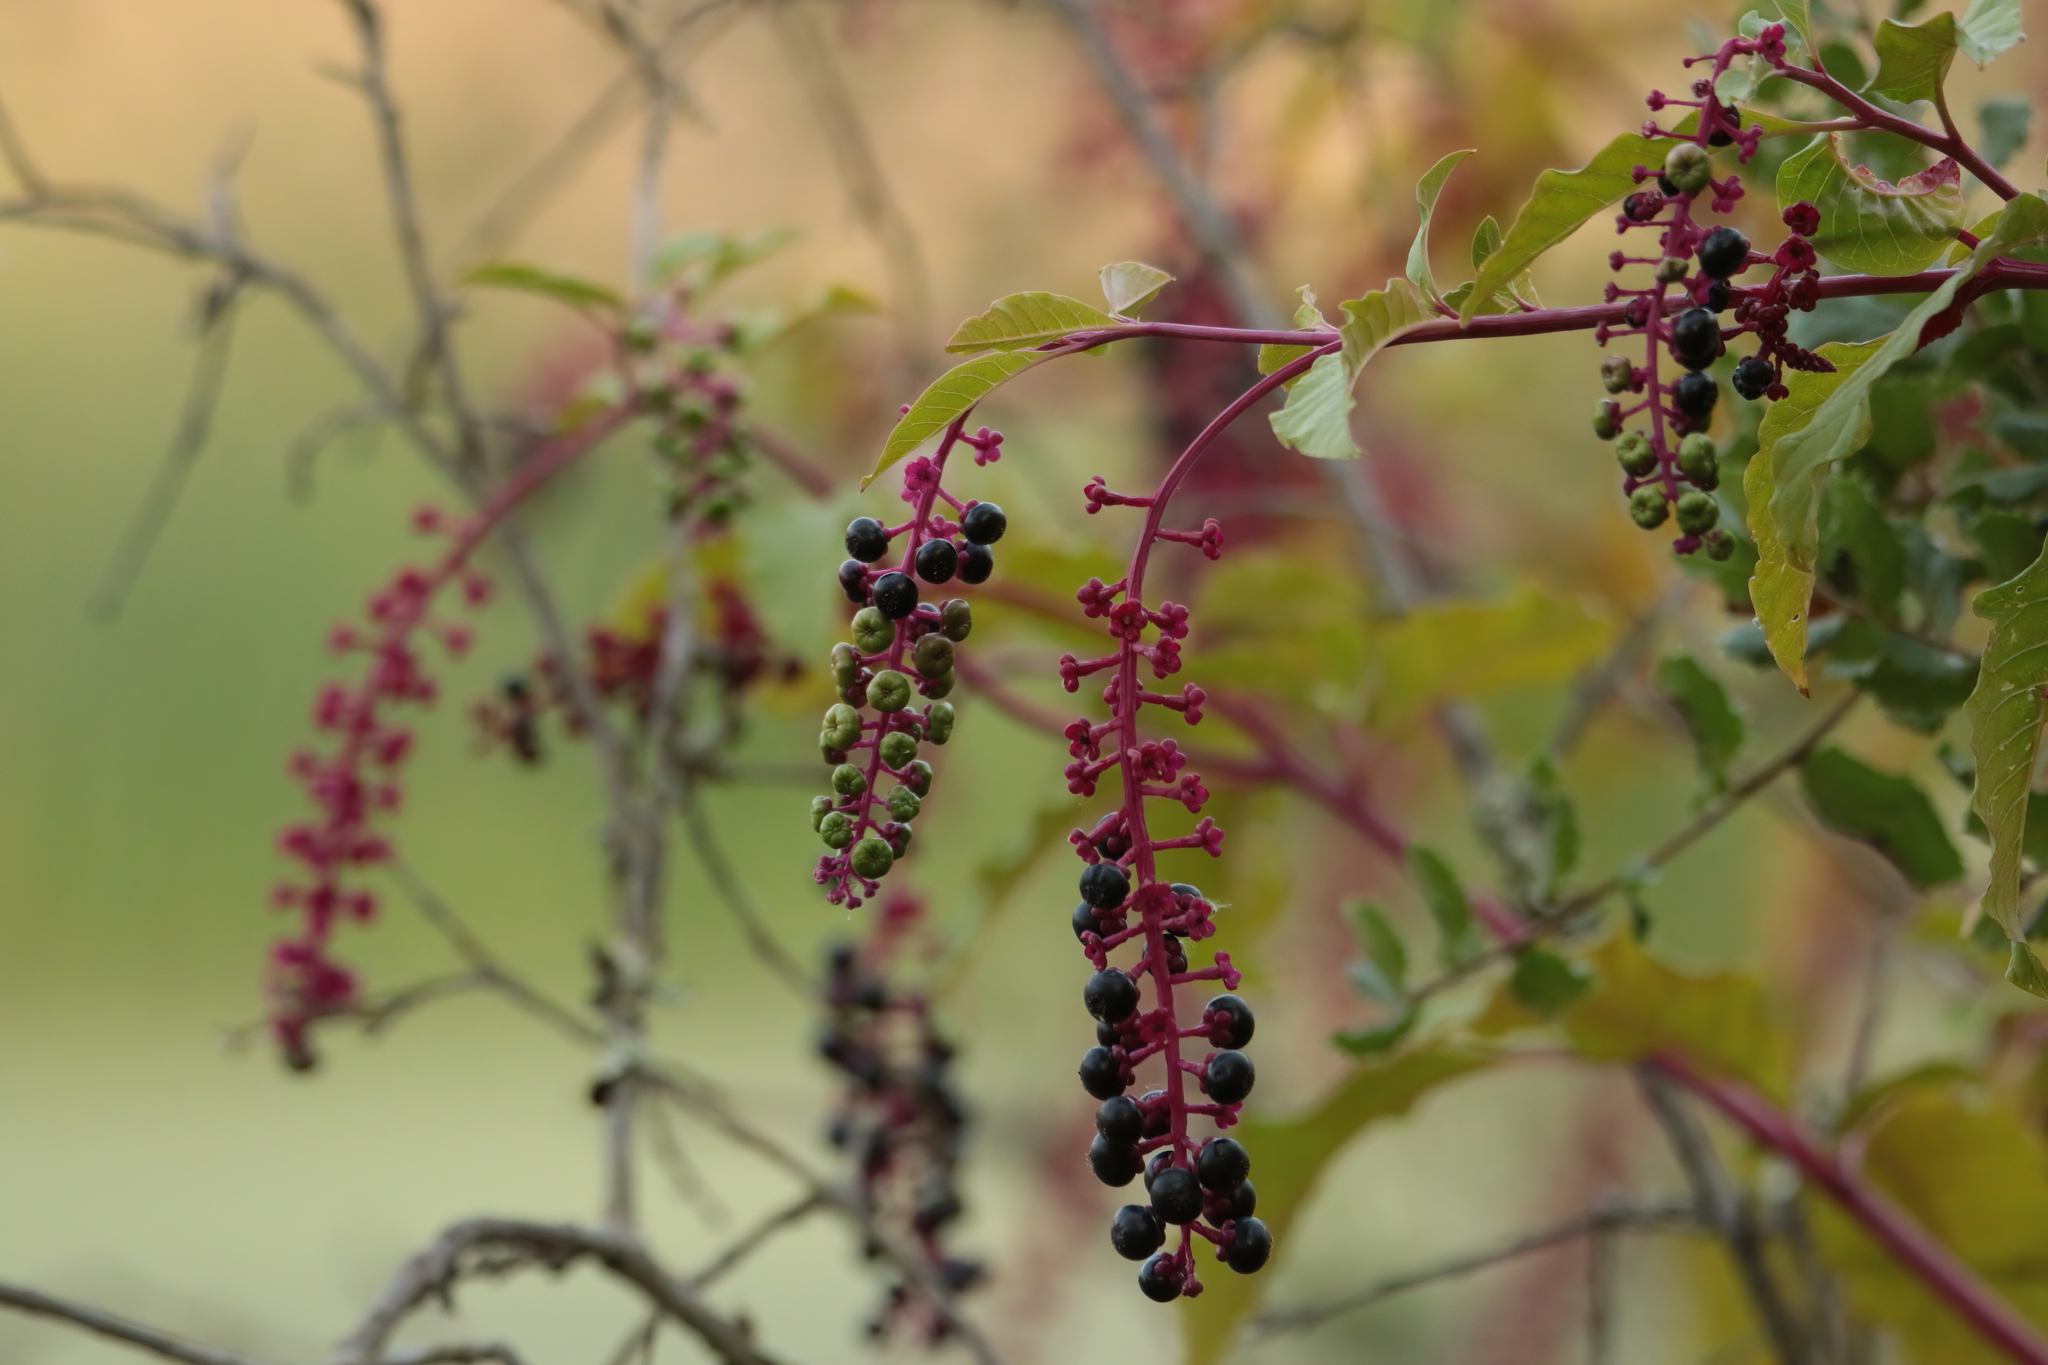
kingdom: Plantae
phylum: Tracheophyta
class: Magnoliopsida
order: Caryophyllales
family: Phytolaccaceae
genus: Phytolacca
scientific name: Phytolacca americana
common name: American pokeweed
